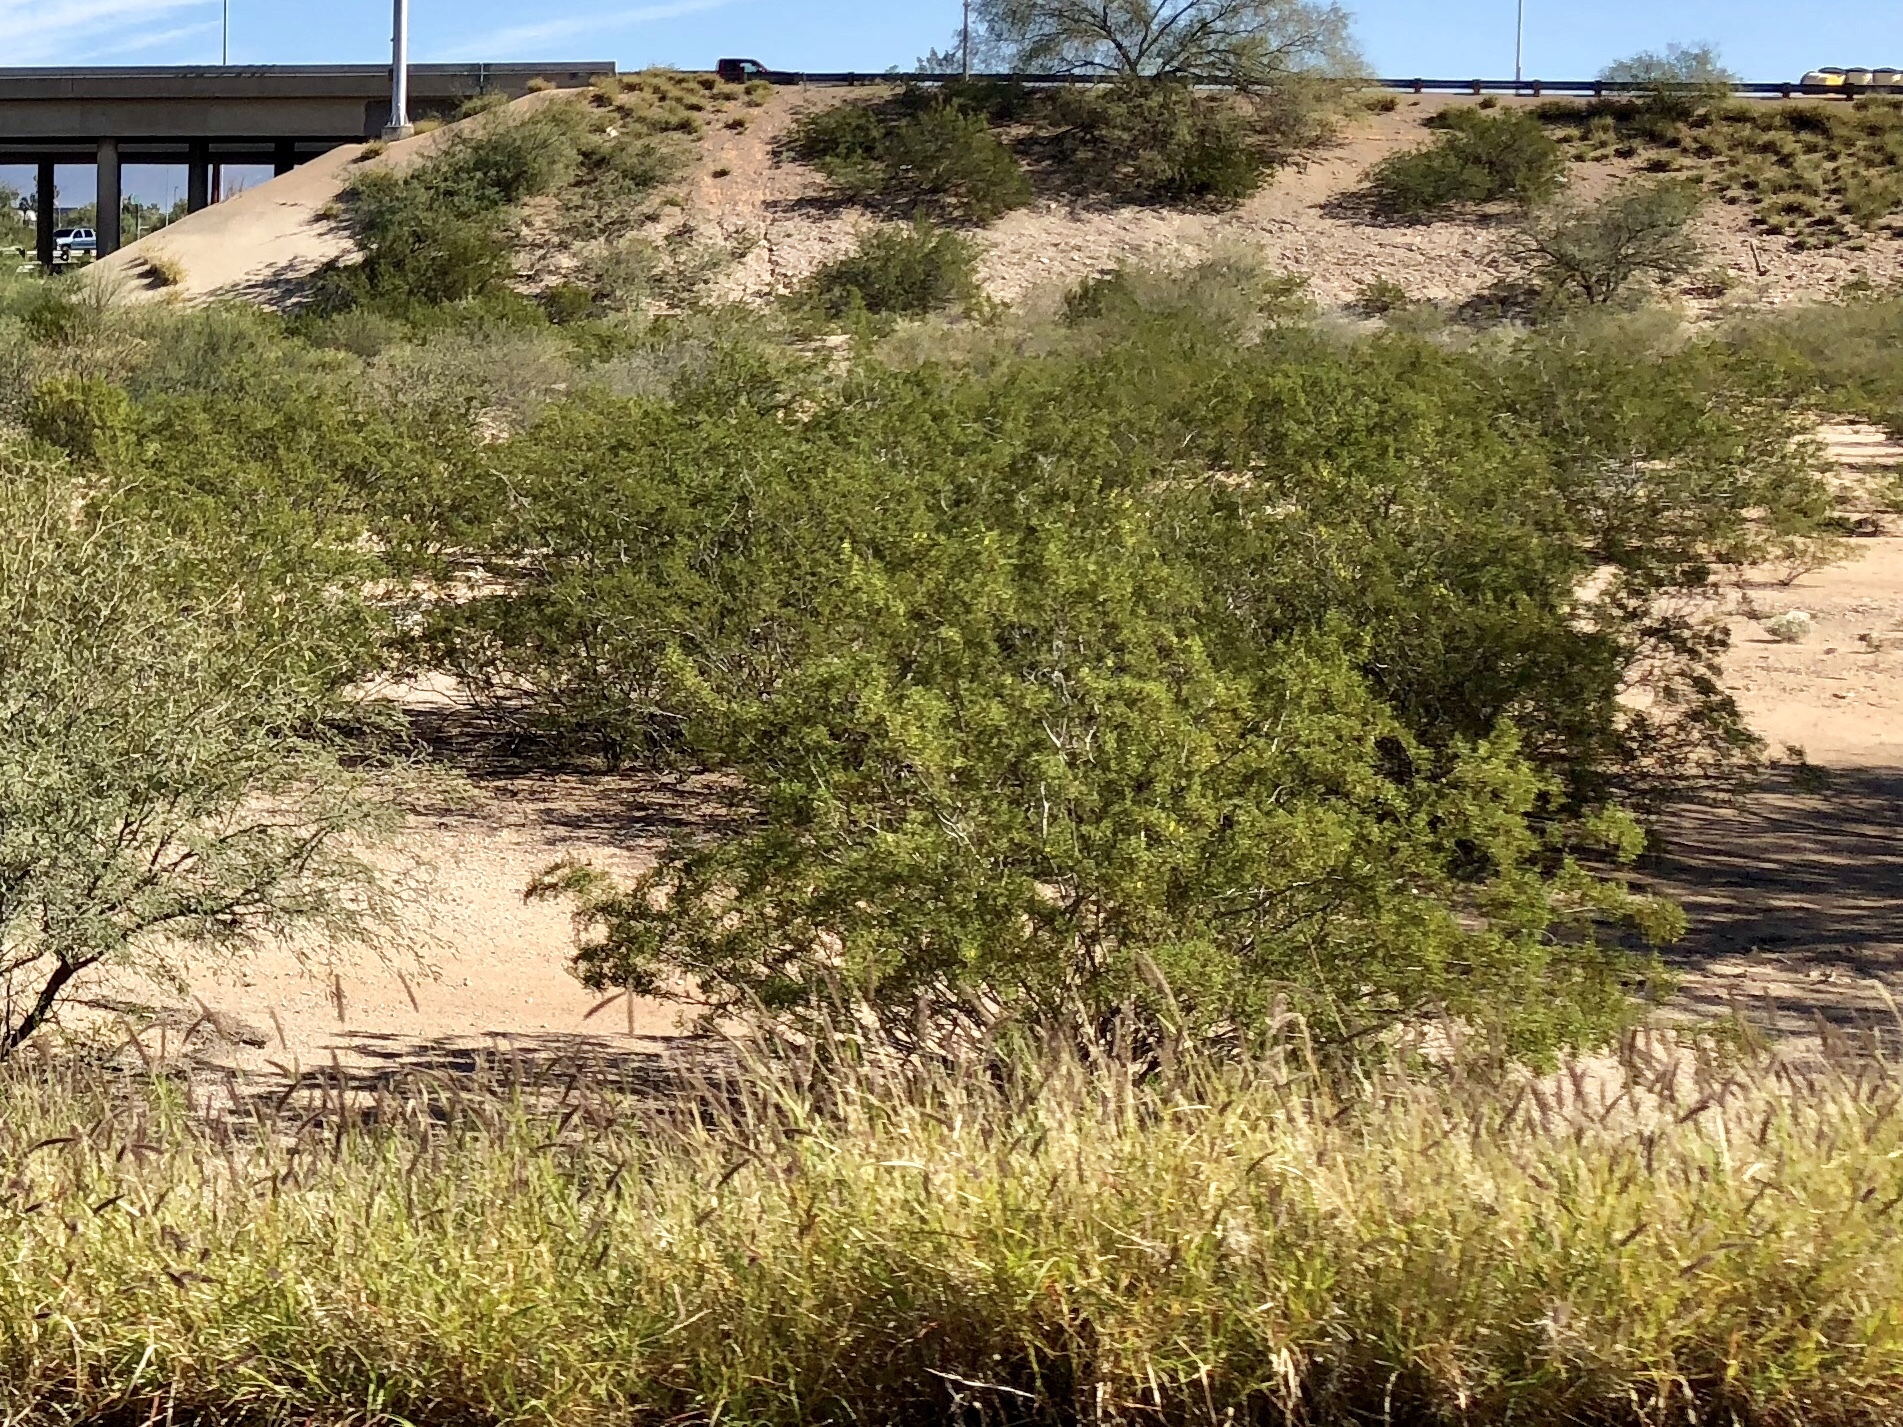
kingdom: Plantae
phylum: Tracheophyta
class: Magnoliopsida
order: Zygophyllales
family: Zygophyllaceae
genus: Larrea
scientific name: Larrea tridentata
